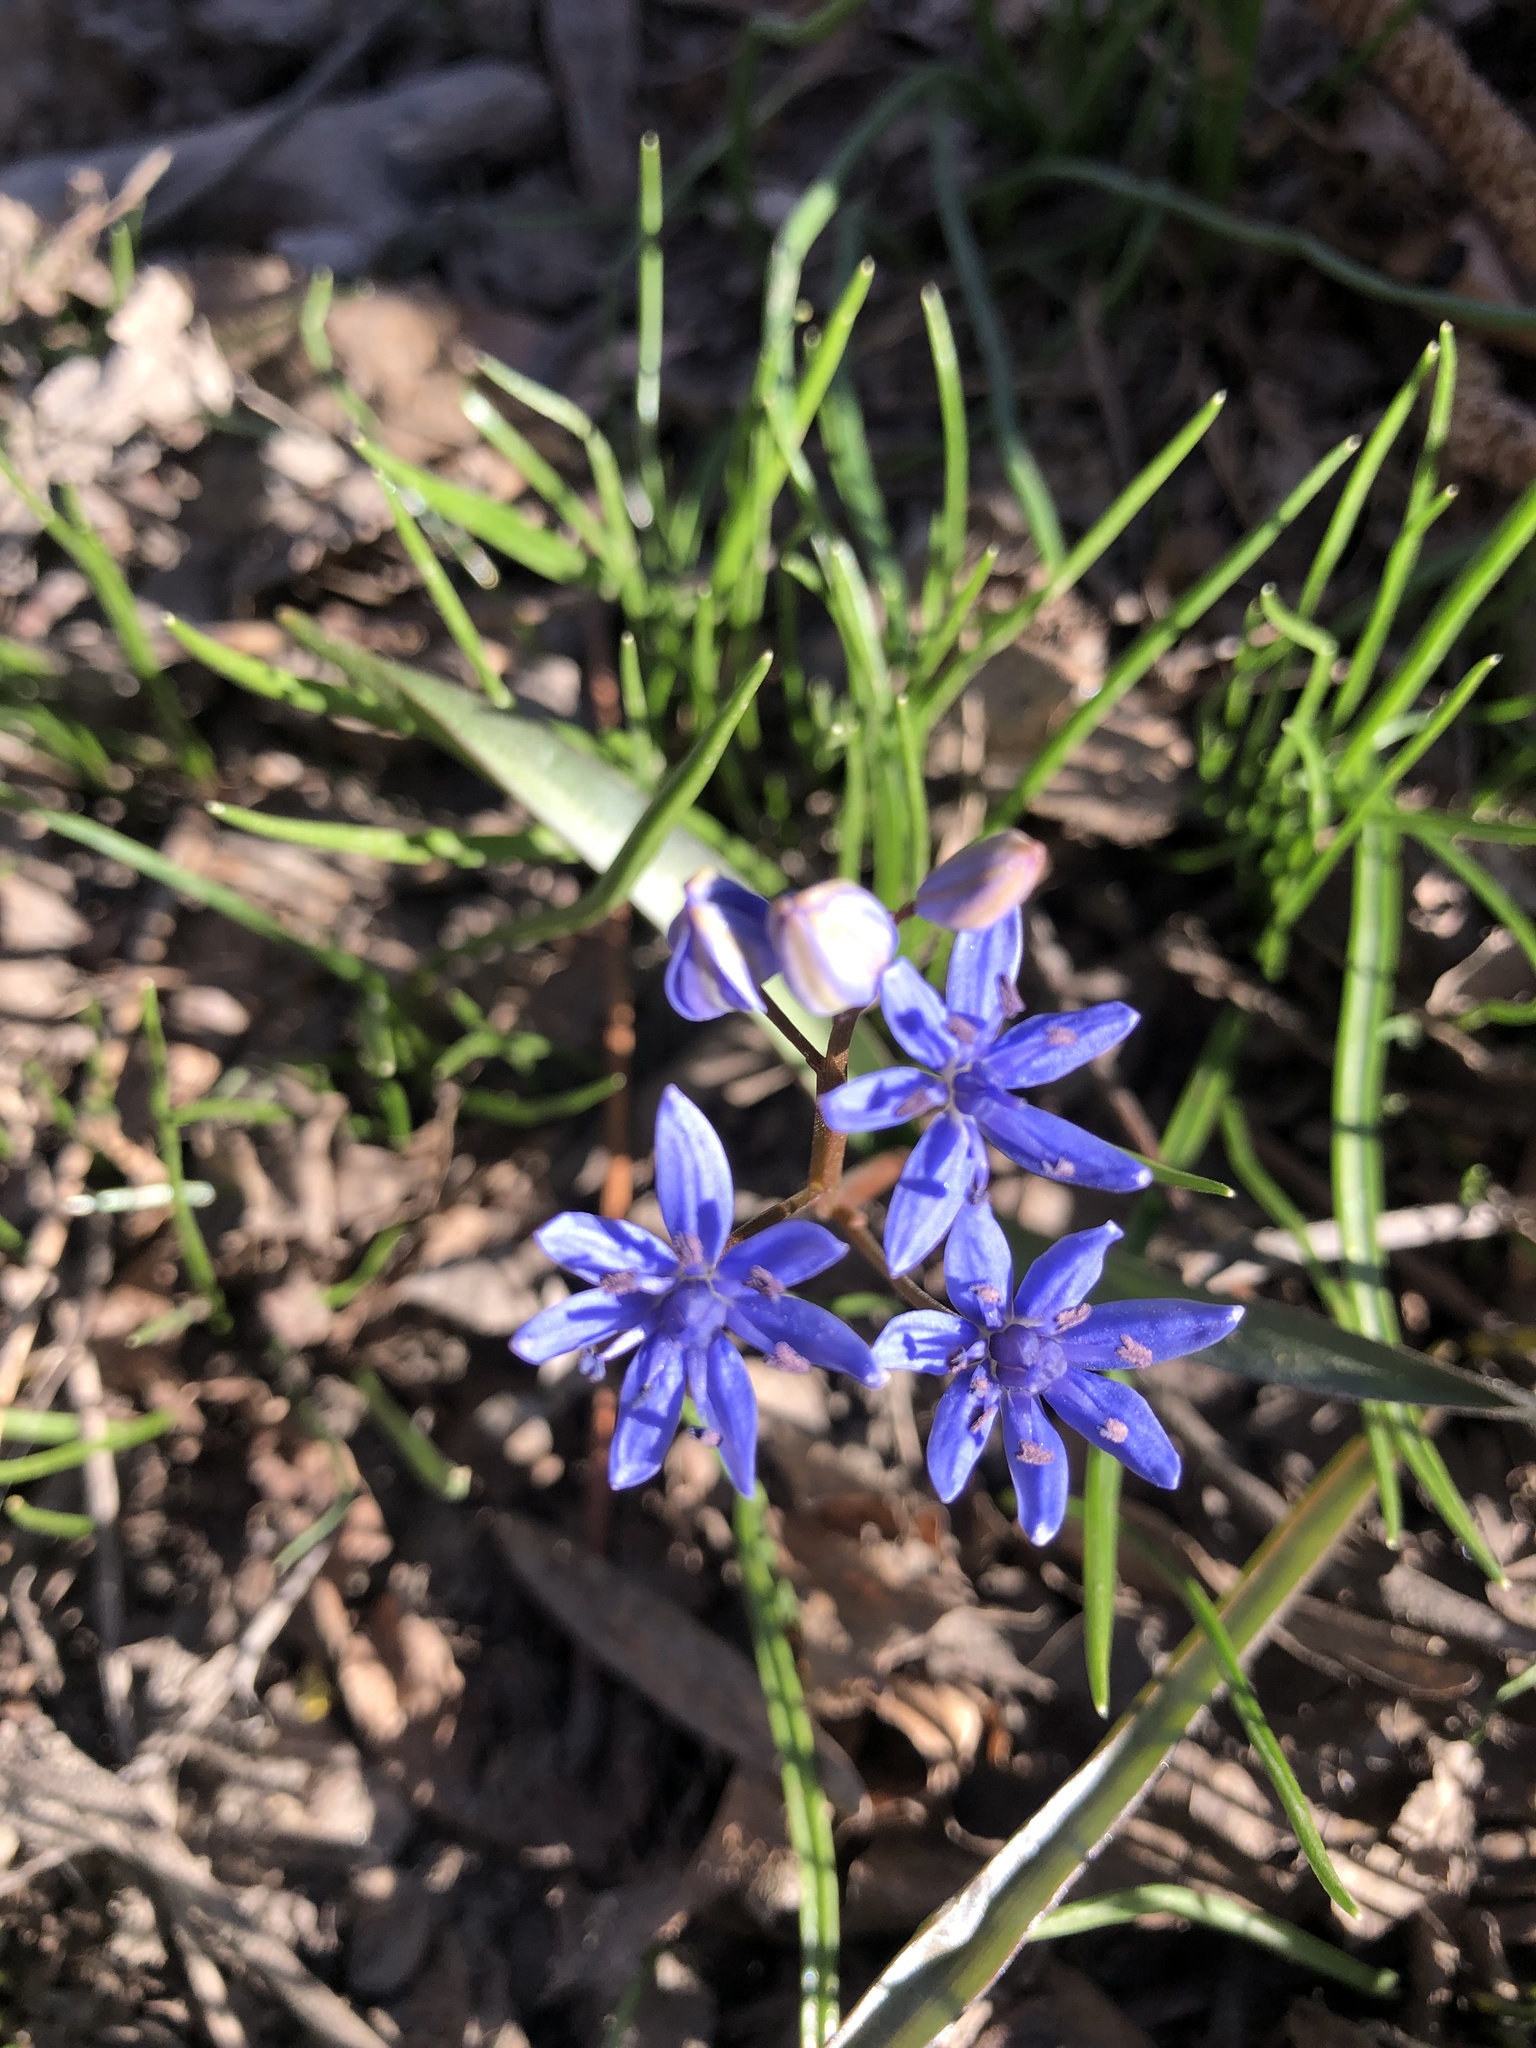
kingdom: Plantae
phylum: Tracheophyta
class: Liliopsida
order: Asparagales
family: Asparagaceae
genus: Scilla
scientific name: Scilla vindobonensis
